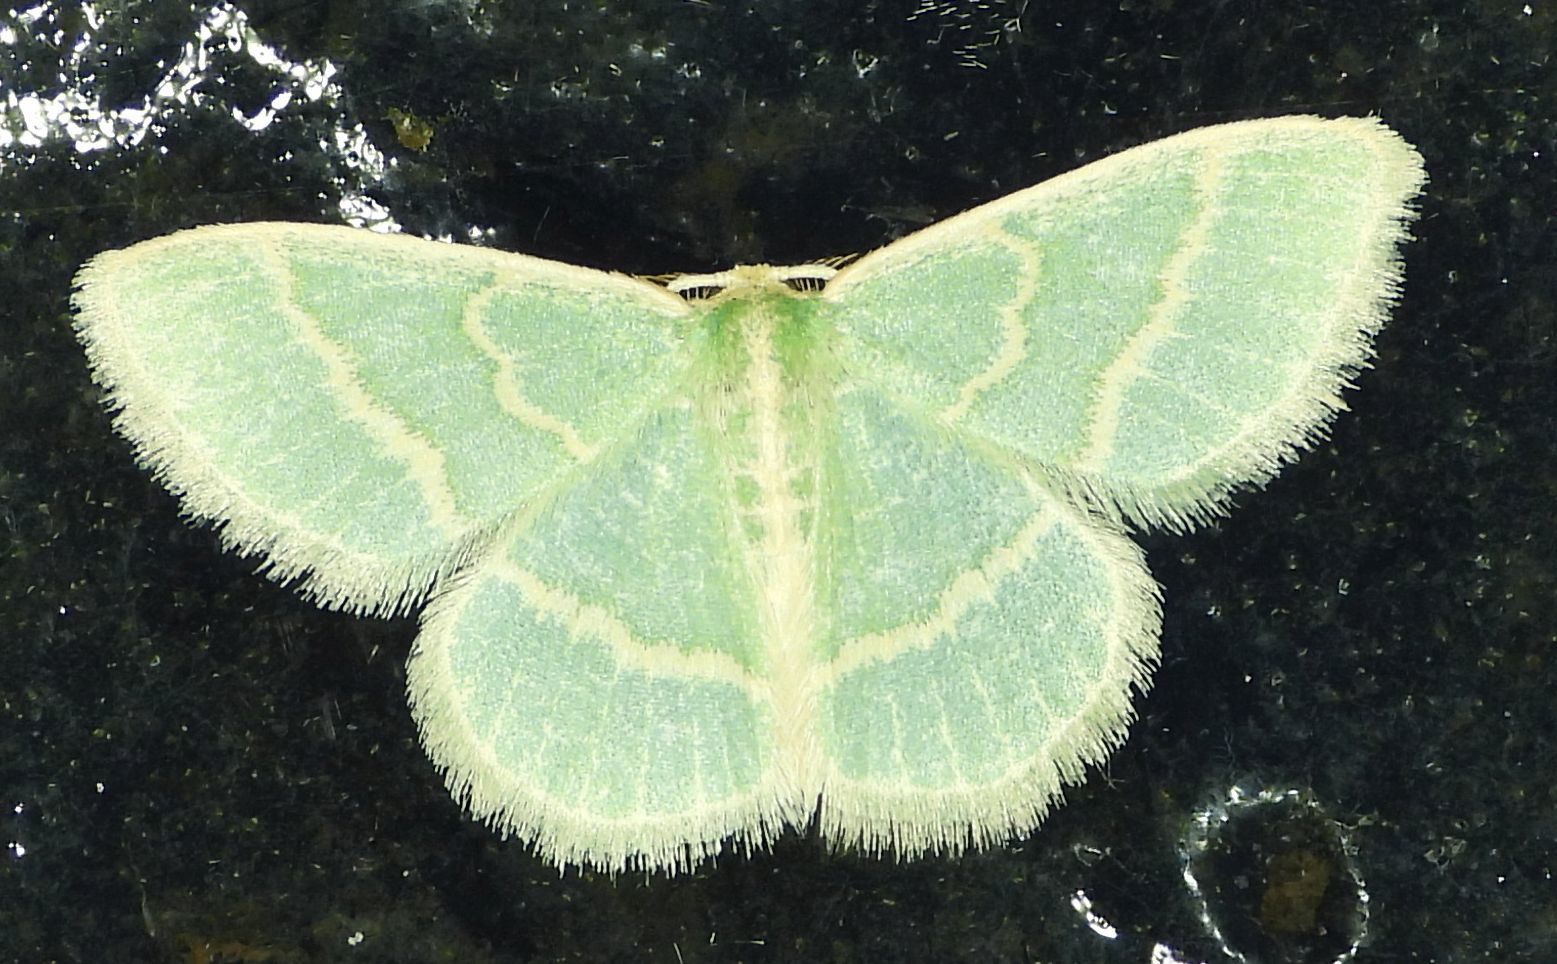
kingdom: Animalia
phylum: Arthropoda
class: Insecta
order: Lepidoptera
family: Geometridae
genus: Chlorochlamys
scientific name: Chlorochlamys chloroleucaria
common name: Blackberry looper
